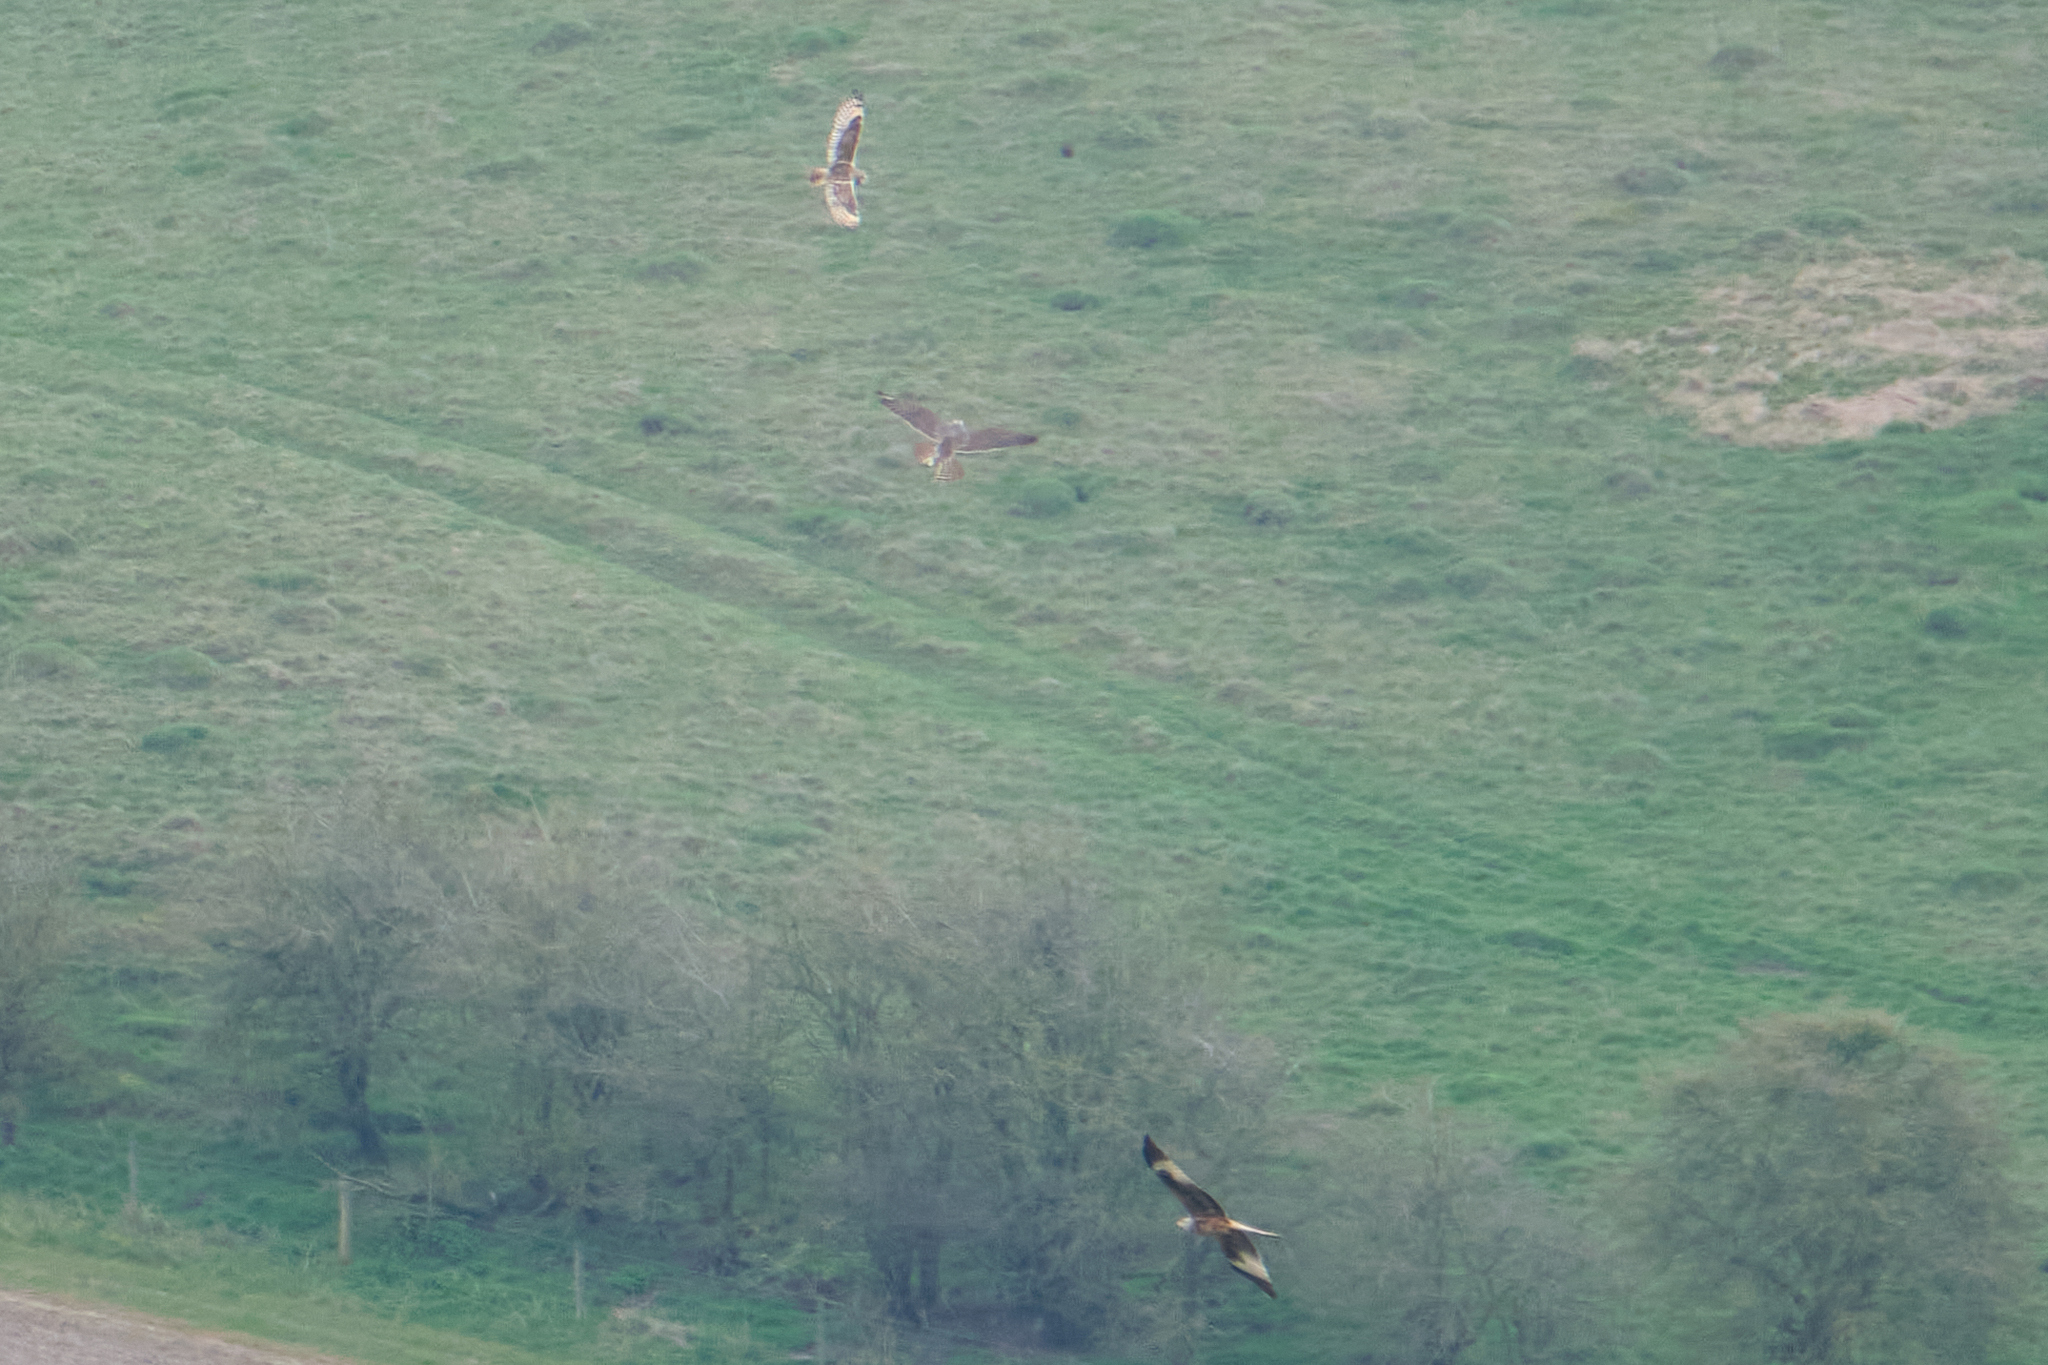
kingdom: Animalia
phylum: Chordata
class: Aves
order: Accipitriformes
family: Accipitridae
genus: Milvus
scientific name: Milvus milvus
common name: Red kite
